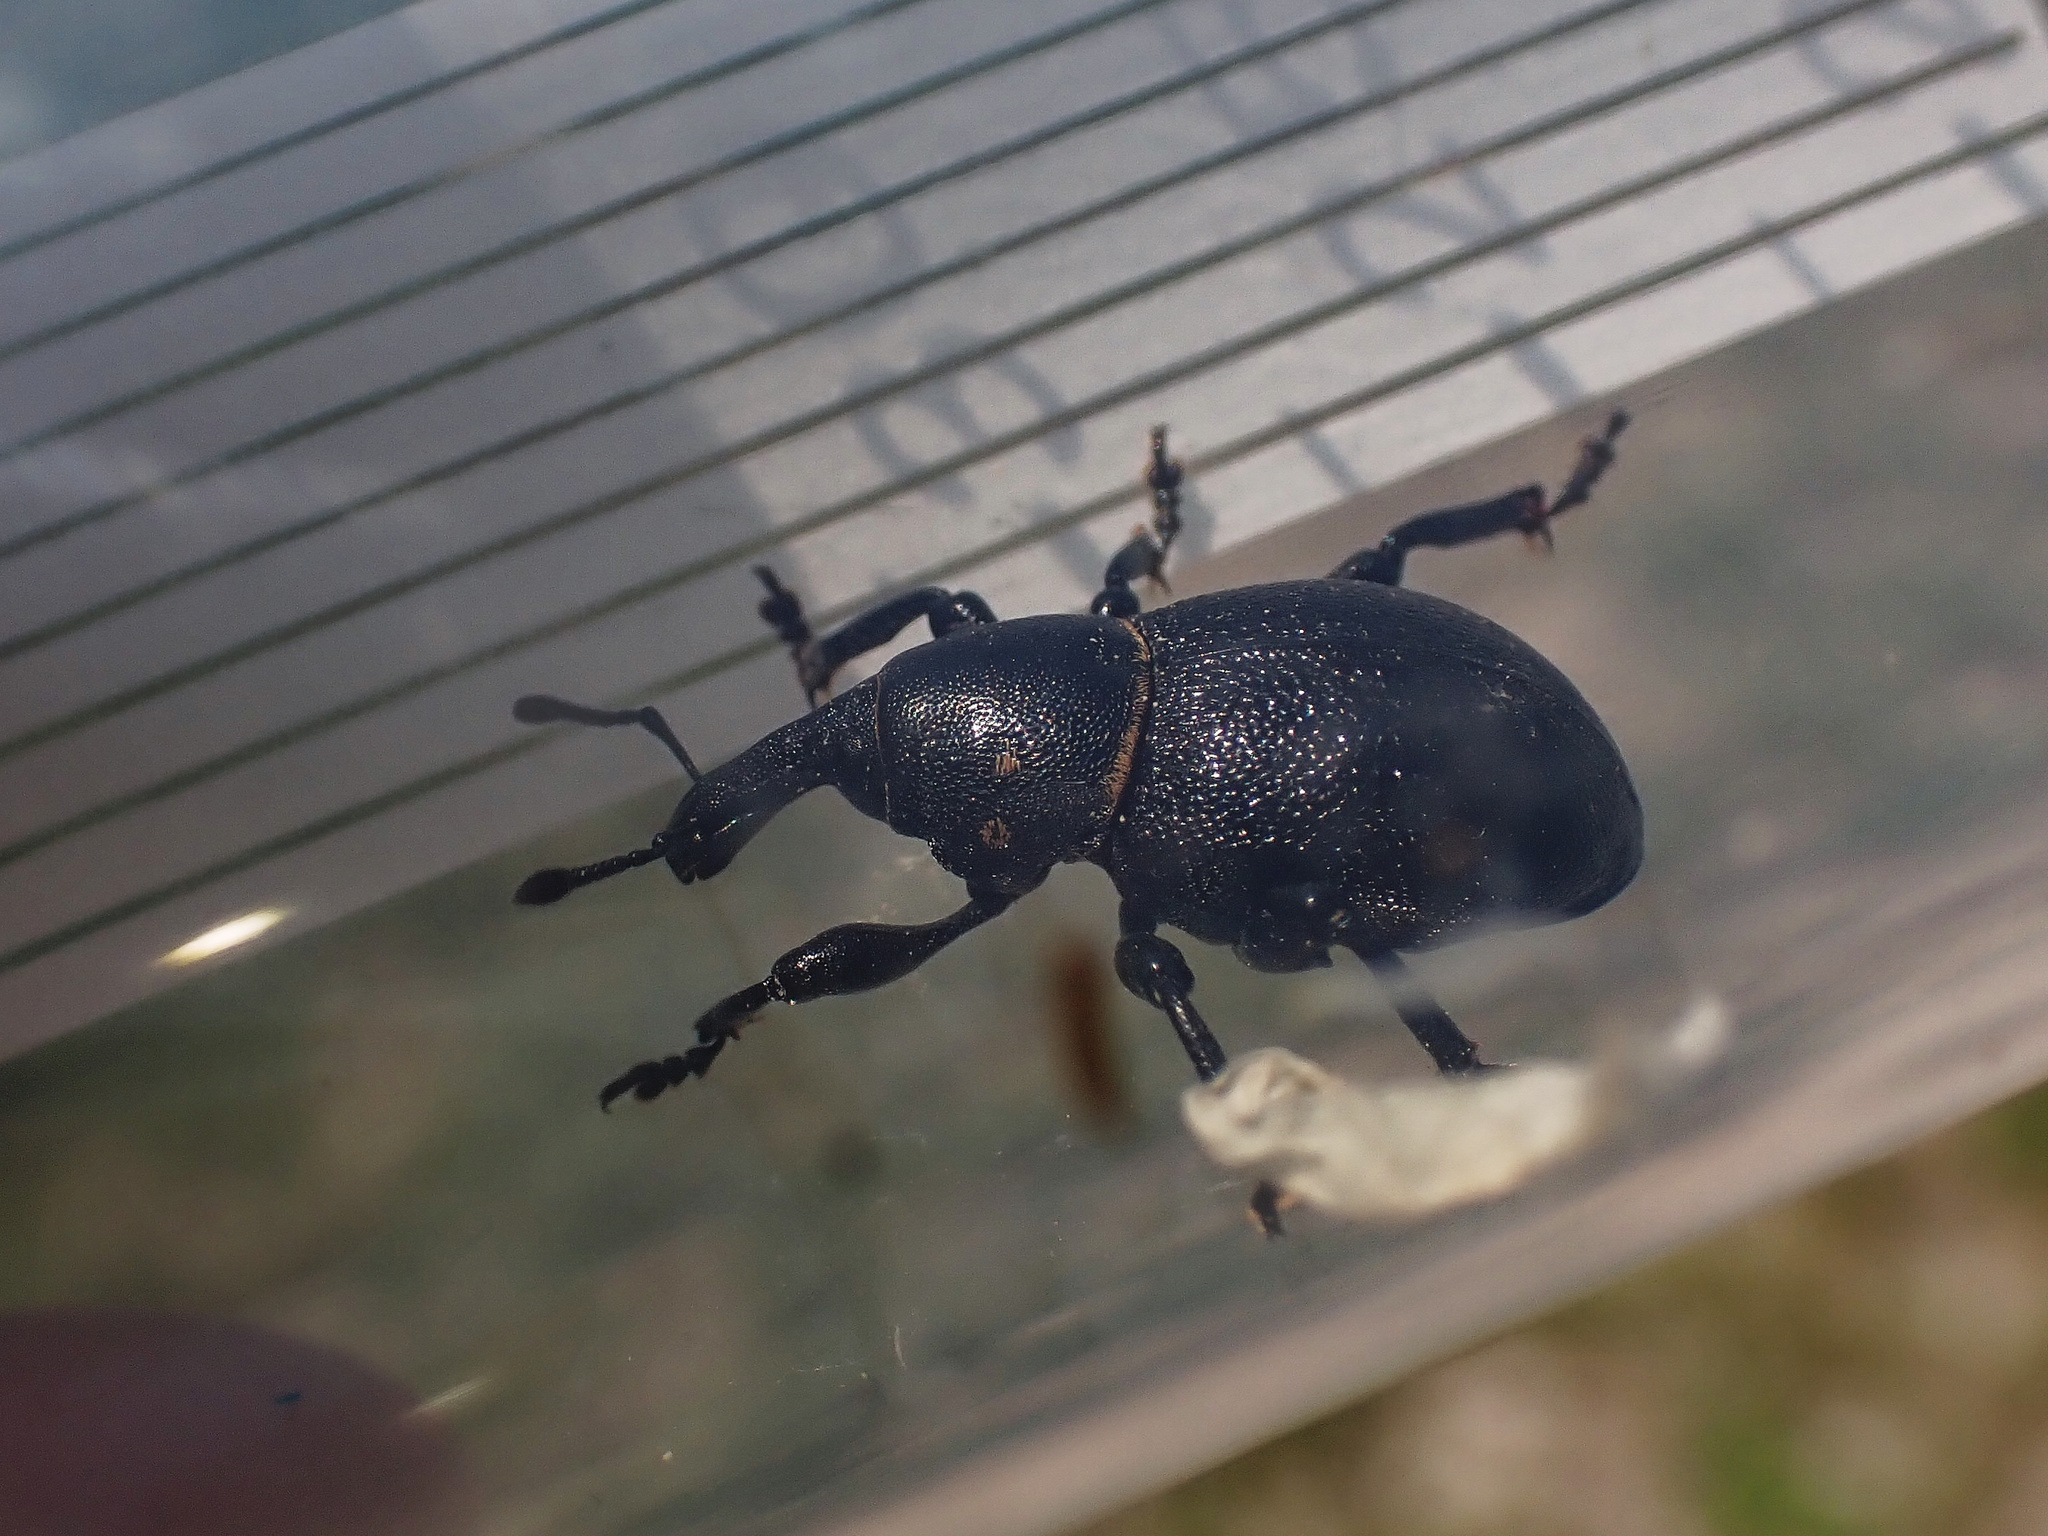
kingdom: Animalia
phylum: Arthropoda
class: Insecta
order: Coleoptera
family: Curculionidae
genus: Liparus
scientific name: Liparus coronatus
